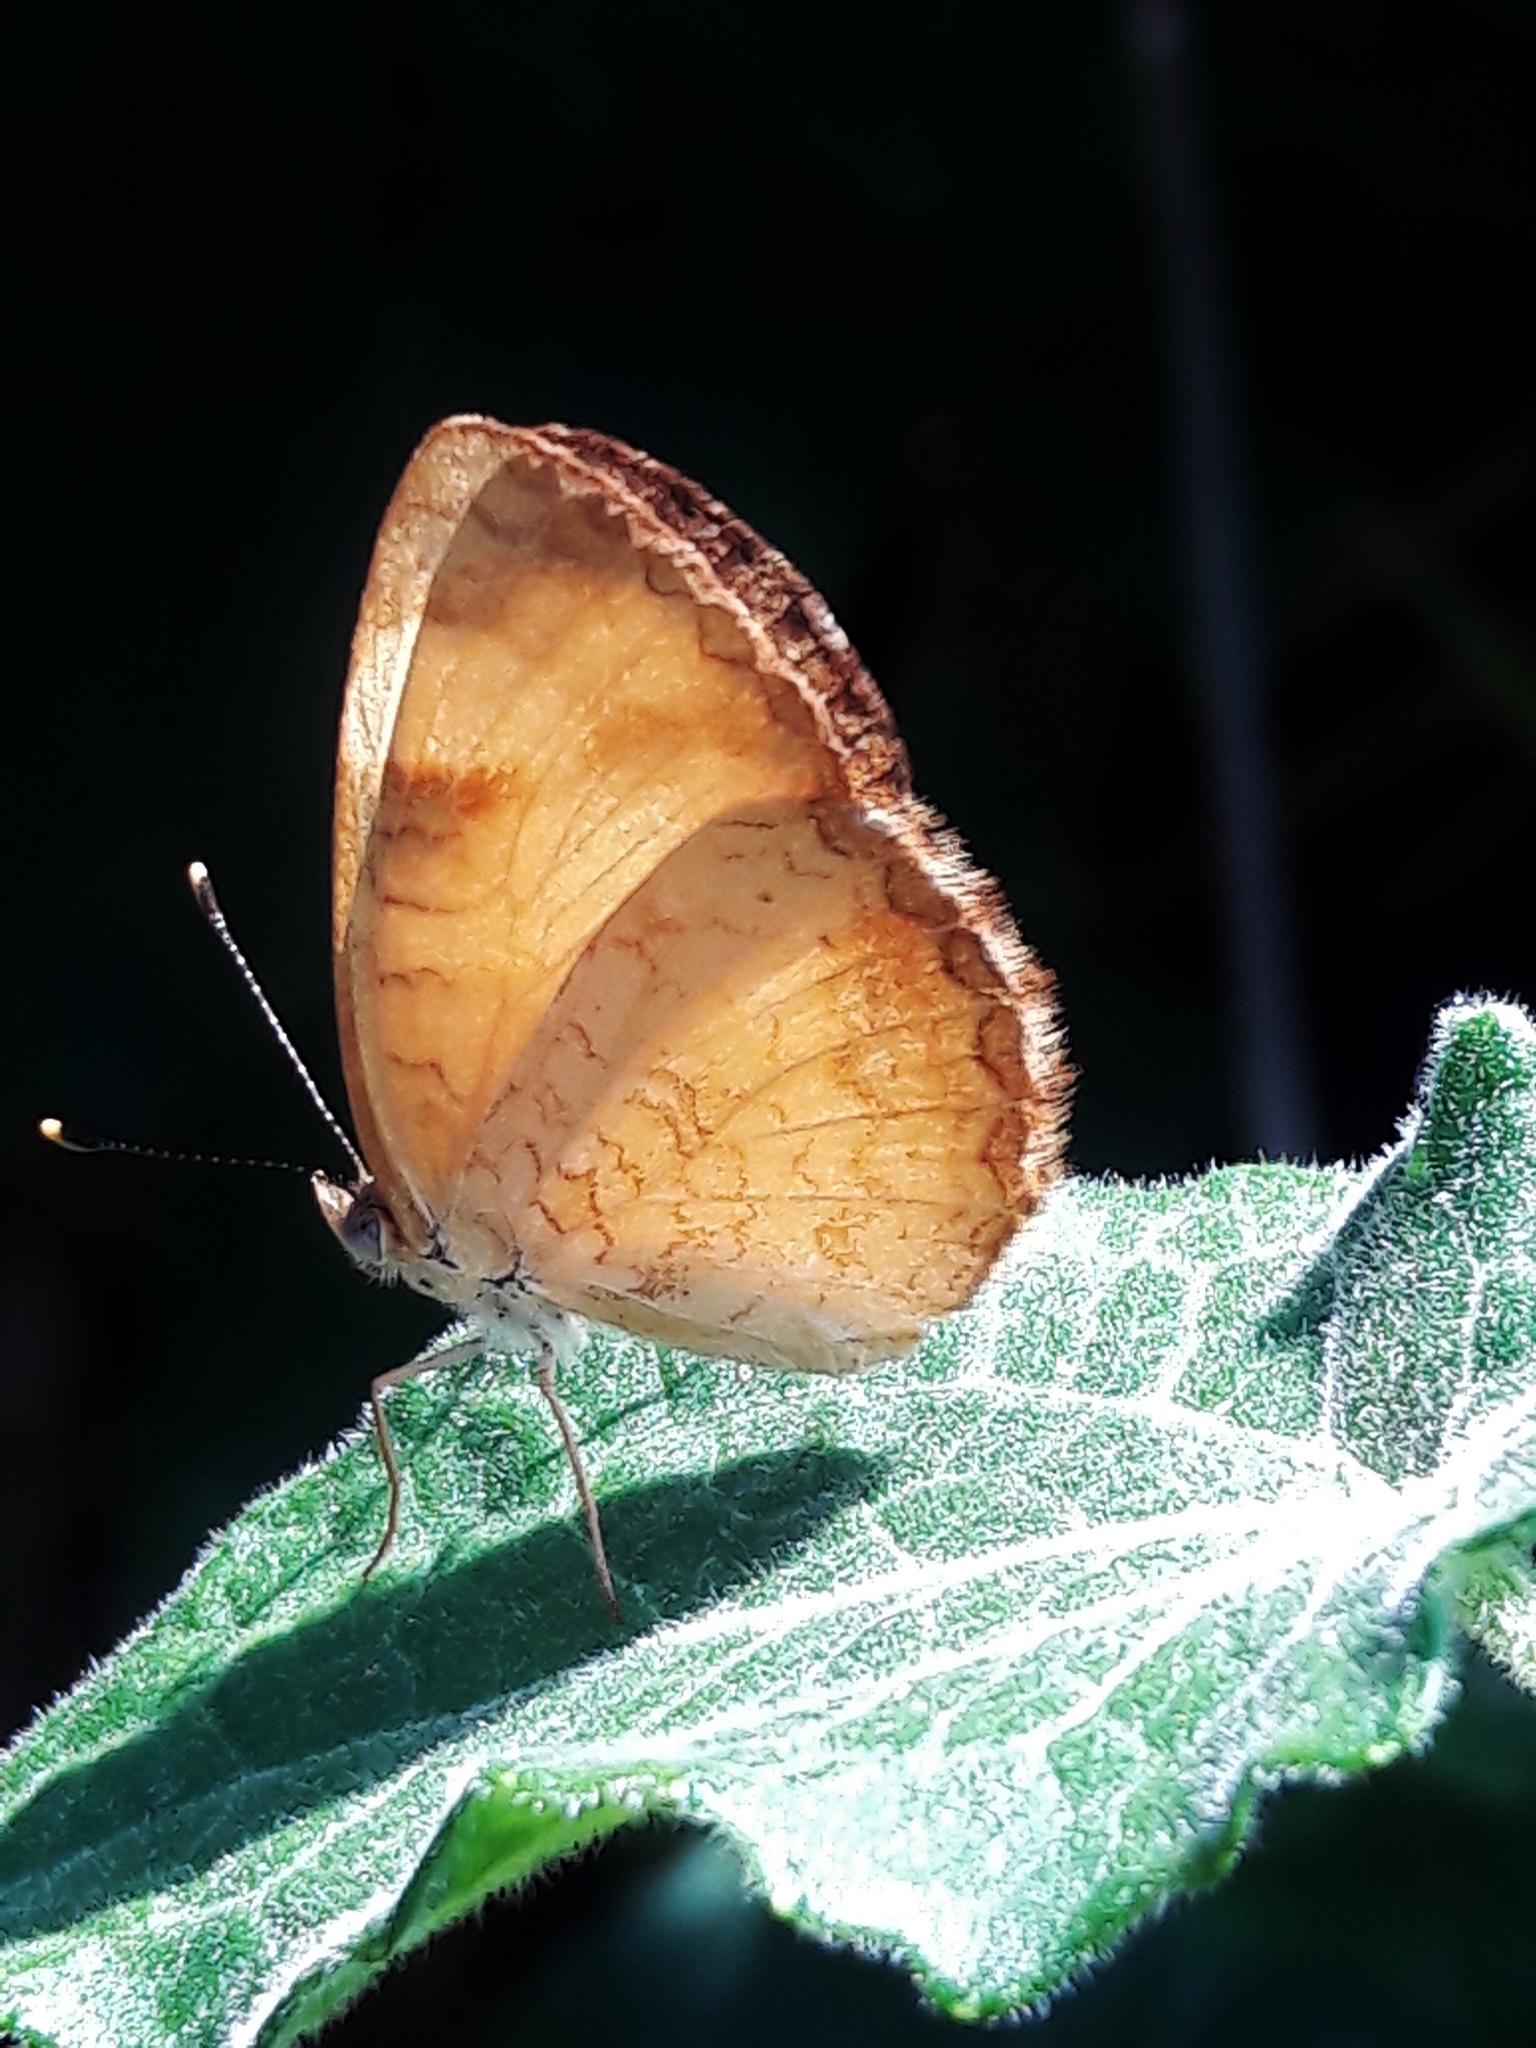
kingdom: Animalia
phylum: Arthropoda
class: Insecta
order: Lepidoptera
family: Nymphalidae
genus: Tegosa
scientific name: Tegosa claudina
